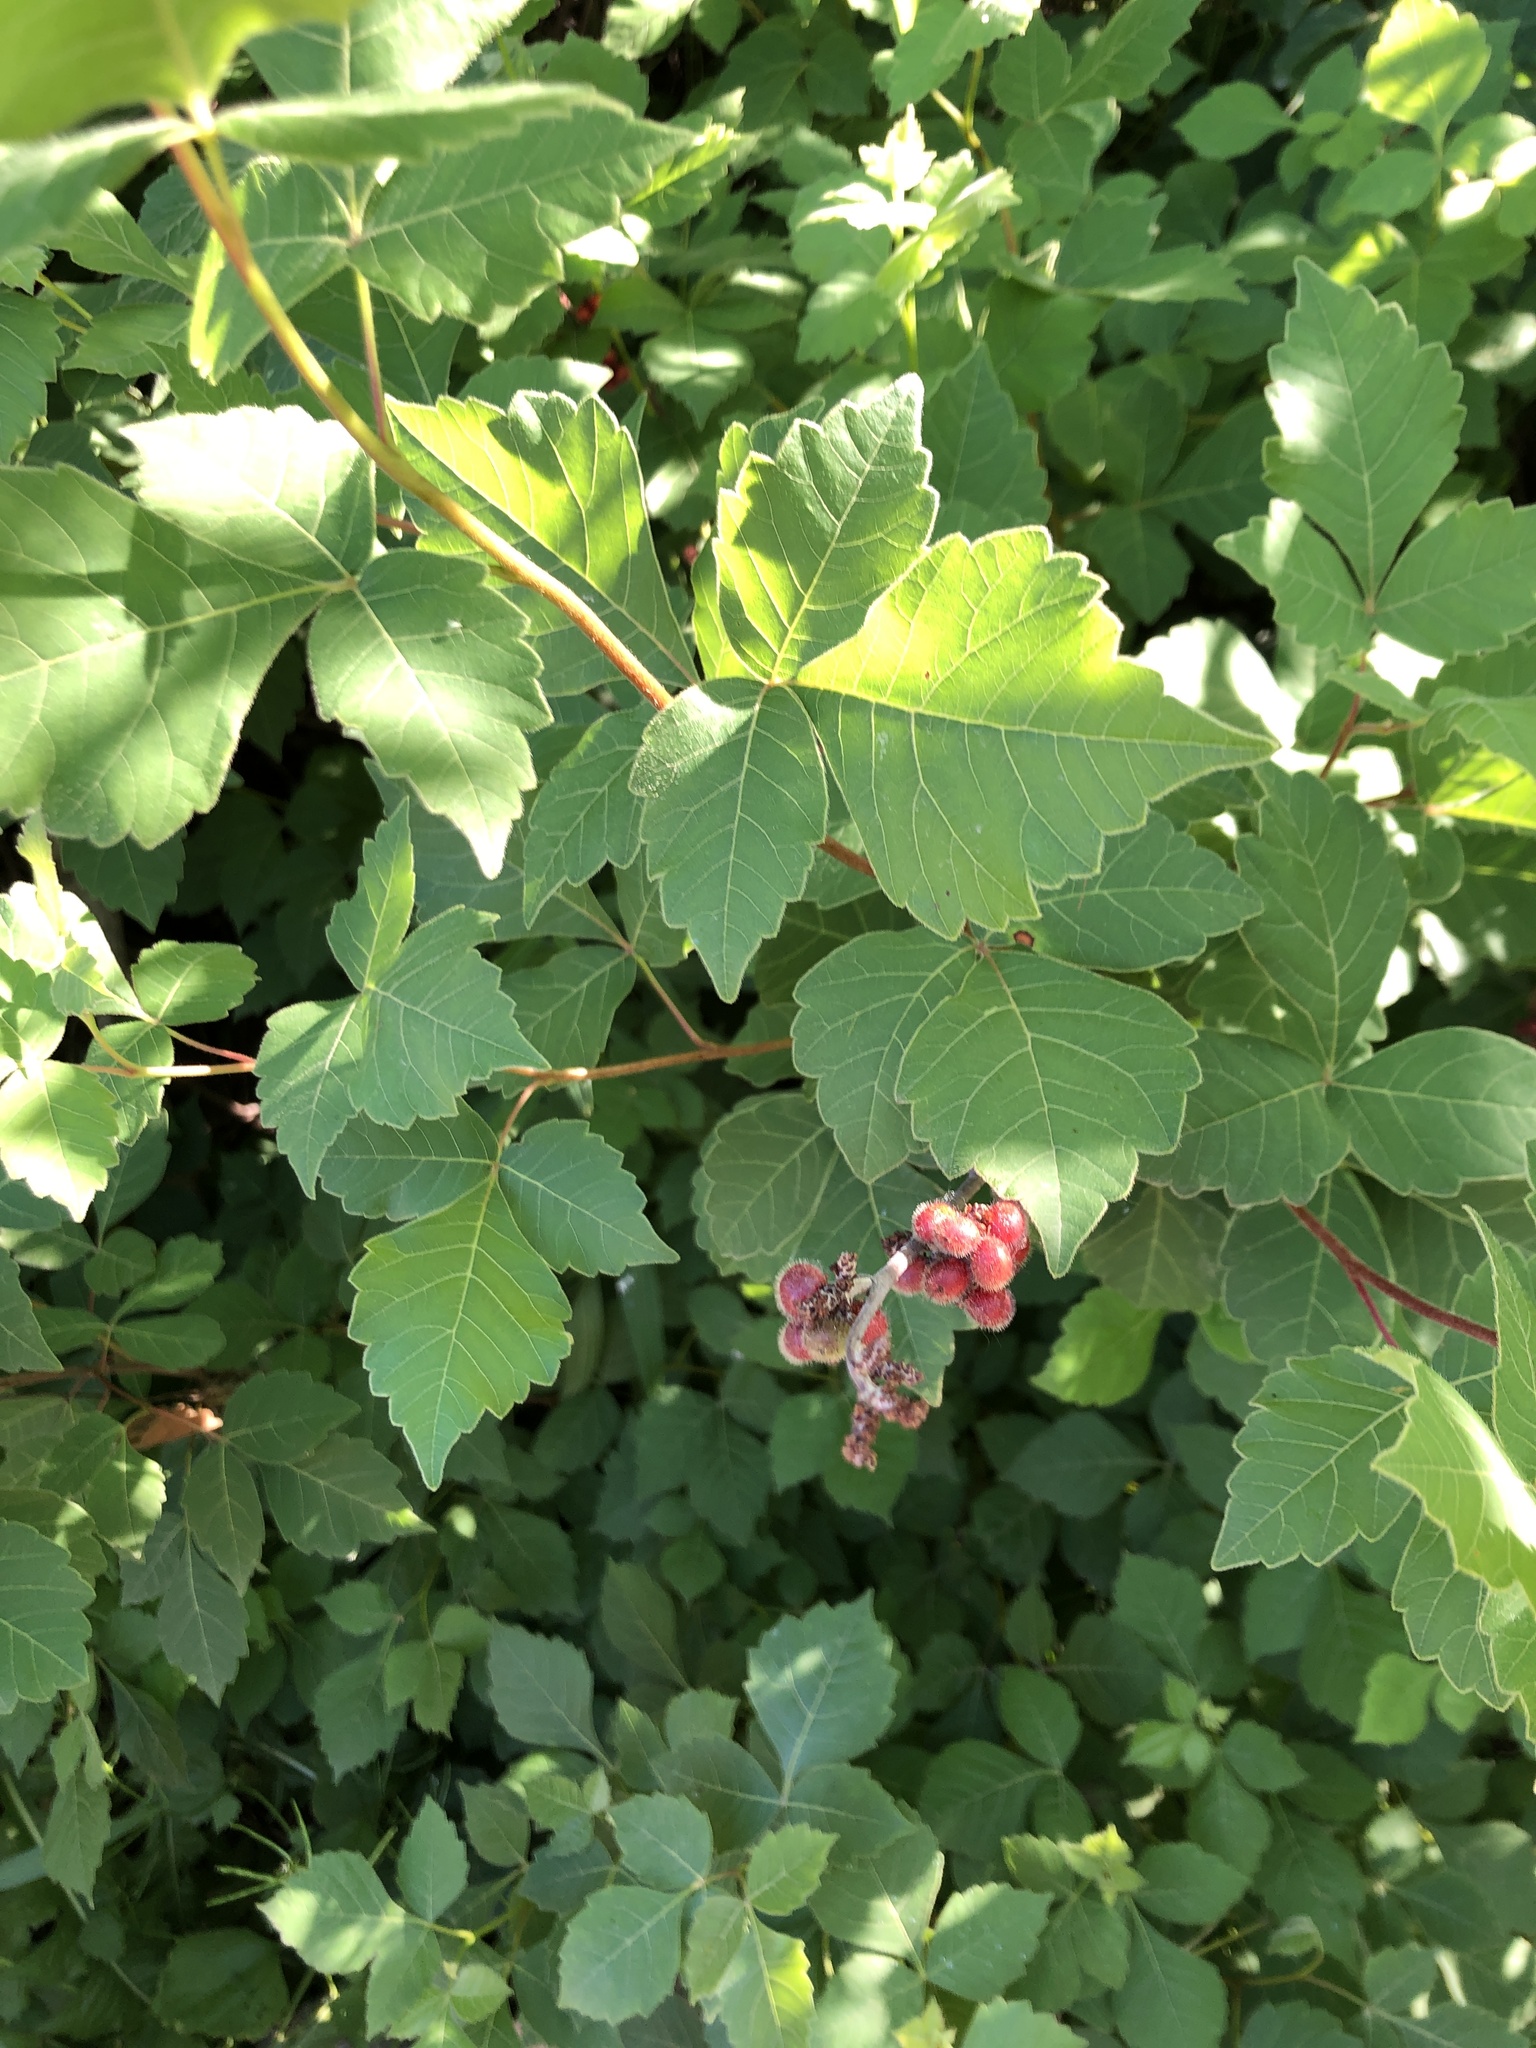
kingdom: Plantae
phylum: Tracheophyta
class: Magnoliopsida
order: Sapindales
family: Anacardiaceae
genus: Rhus
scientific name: Rhus aromatica
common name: Aromatic sumac
